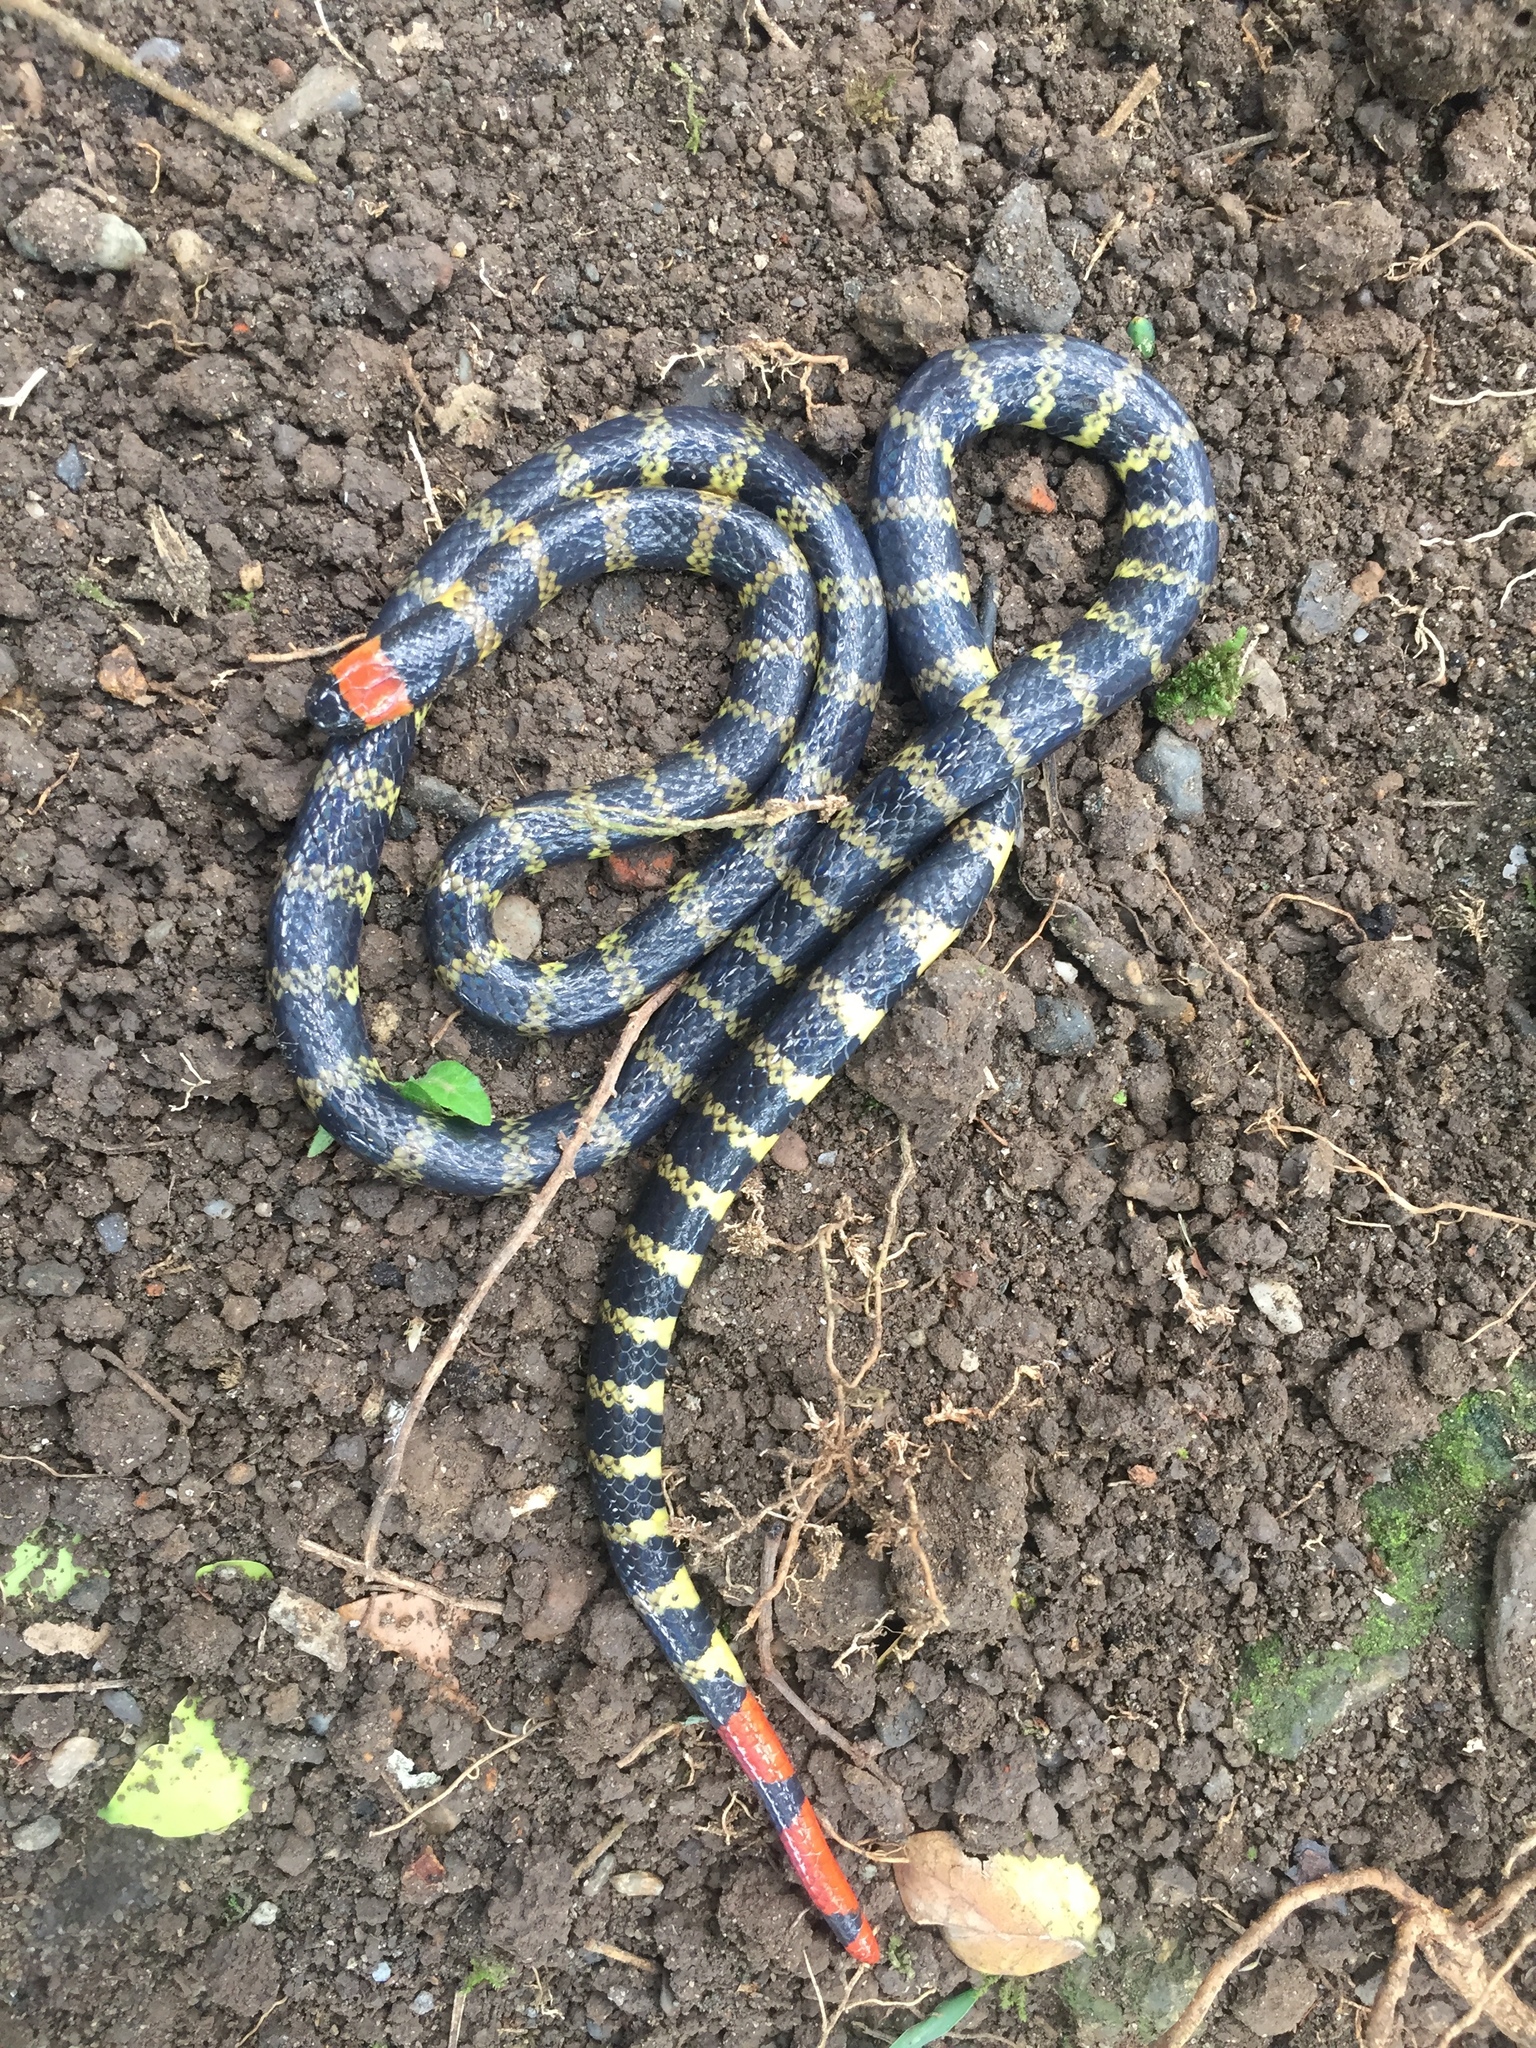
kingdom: Animalia
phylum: Chordata
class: Squamata
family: Elapidae
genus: Micrurus
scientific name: Micrurus mipartitus
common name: Redtail coral snake
